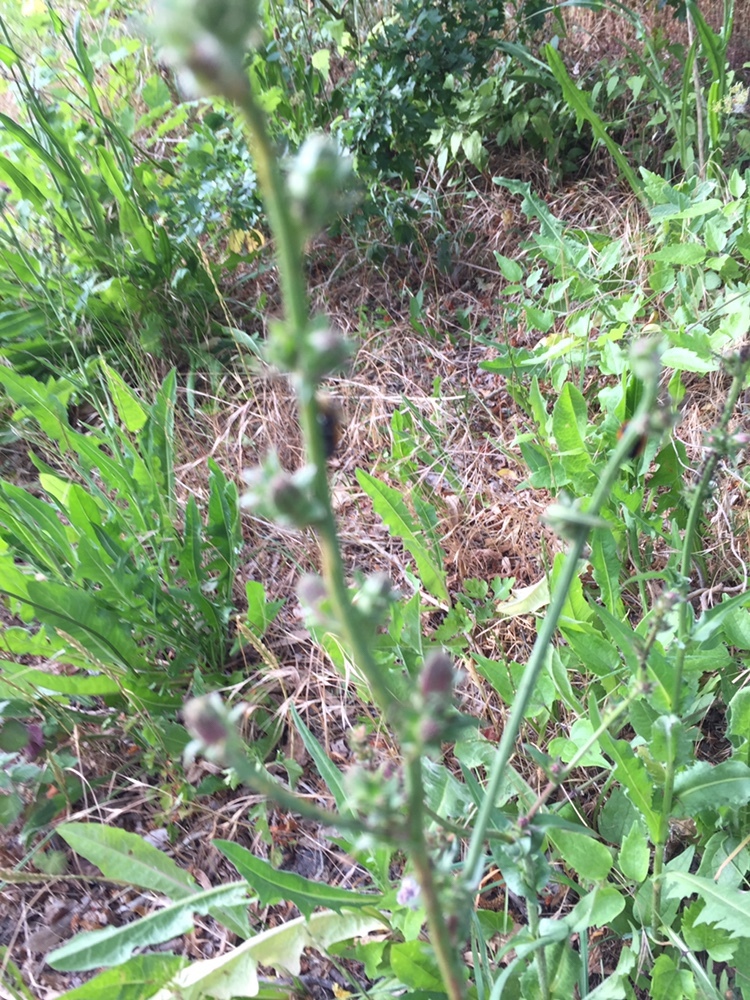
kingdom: Plantae
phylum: Tracheophyta
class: Magnoliopsida
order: Asterales
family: Asteraceae
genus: Cichorium
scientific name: Cichorium intybus
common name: Chicory
